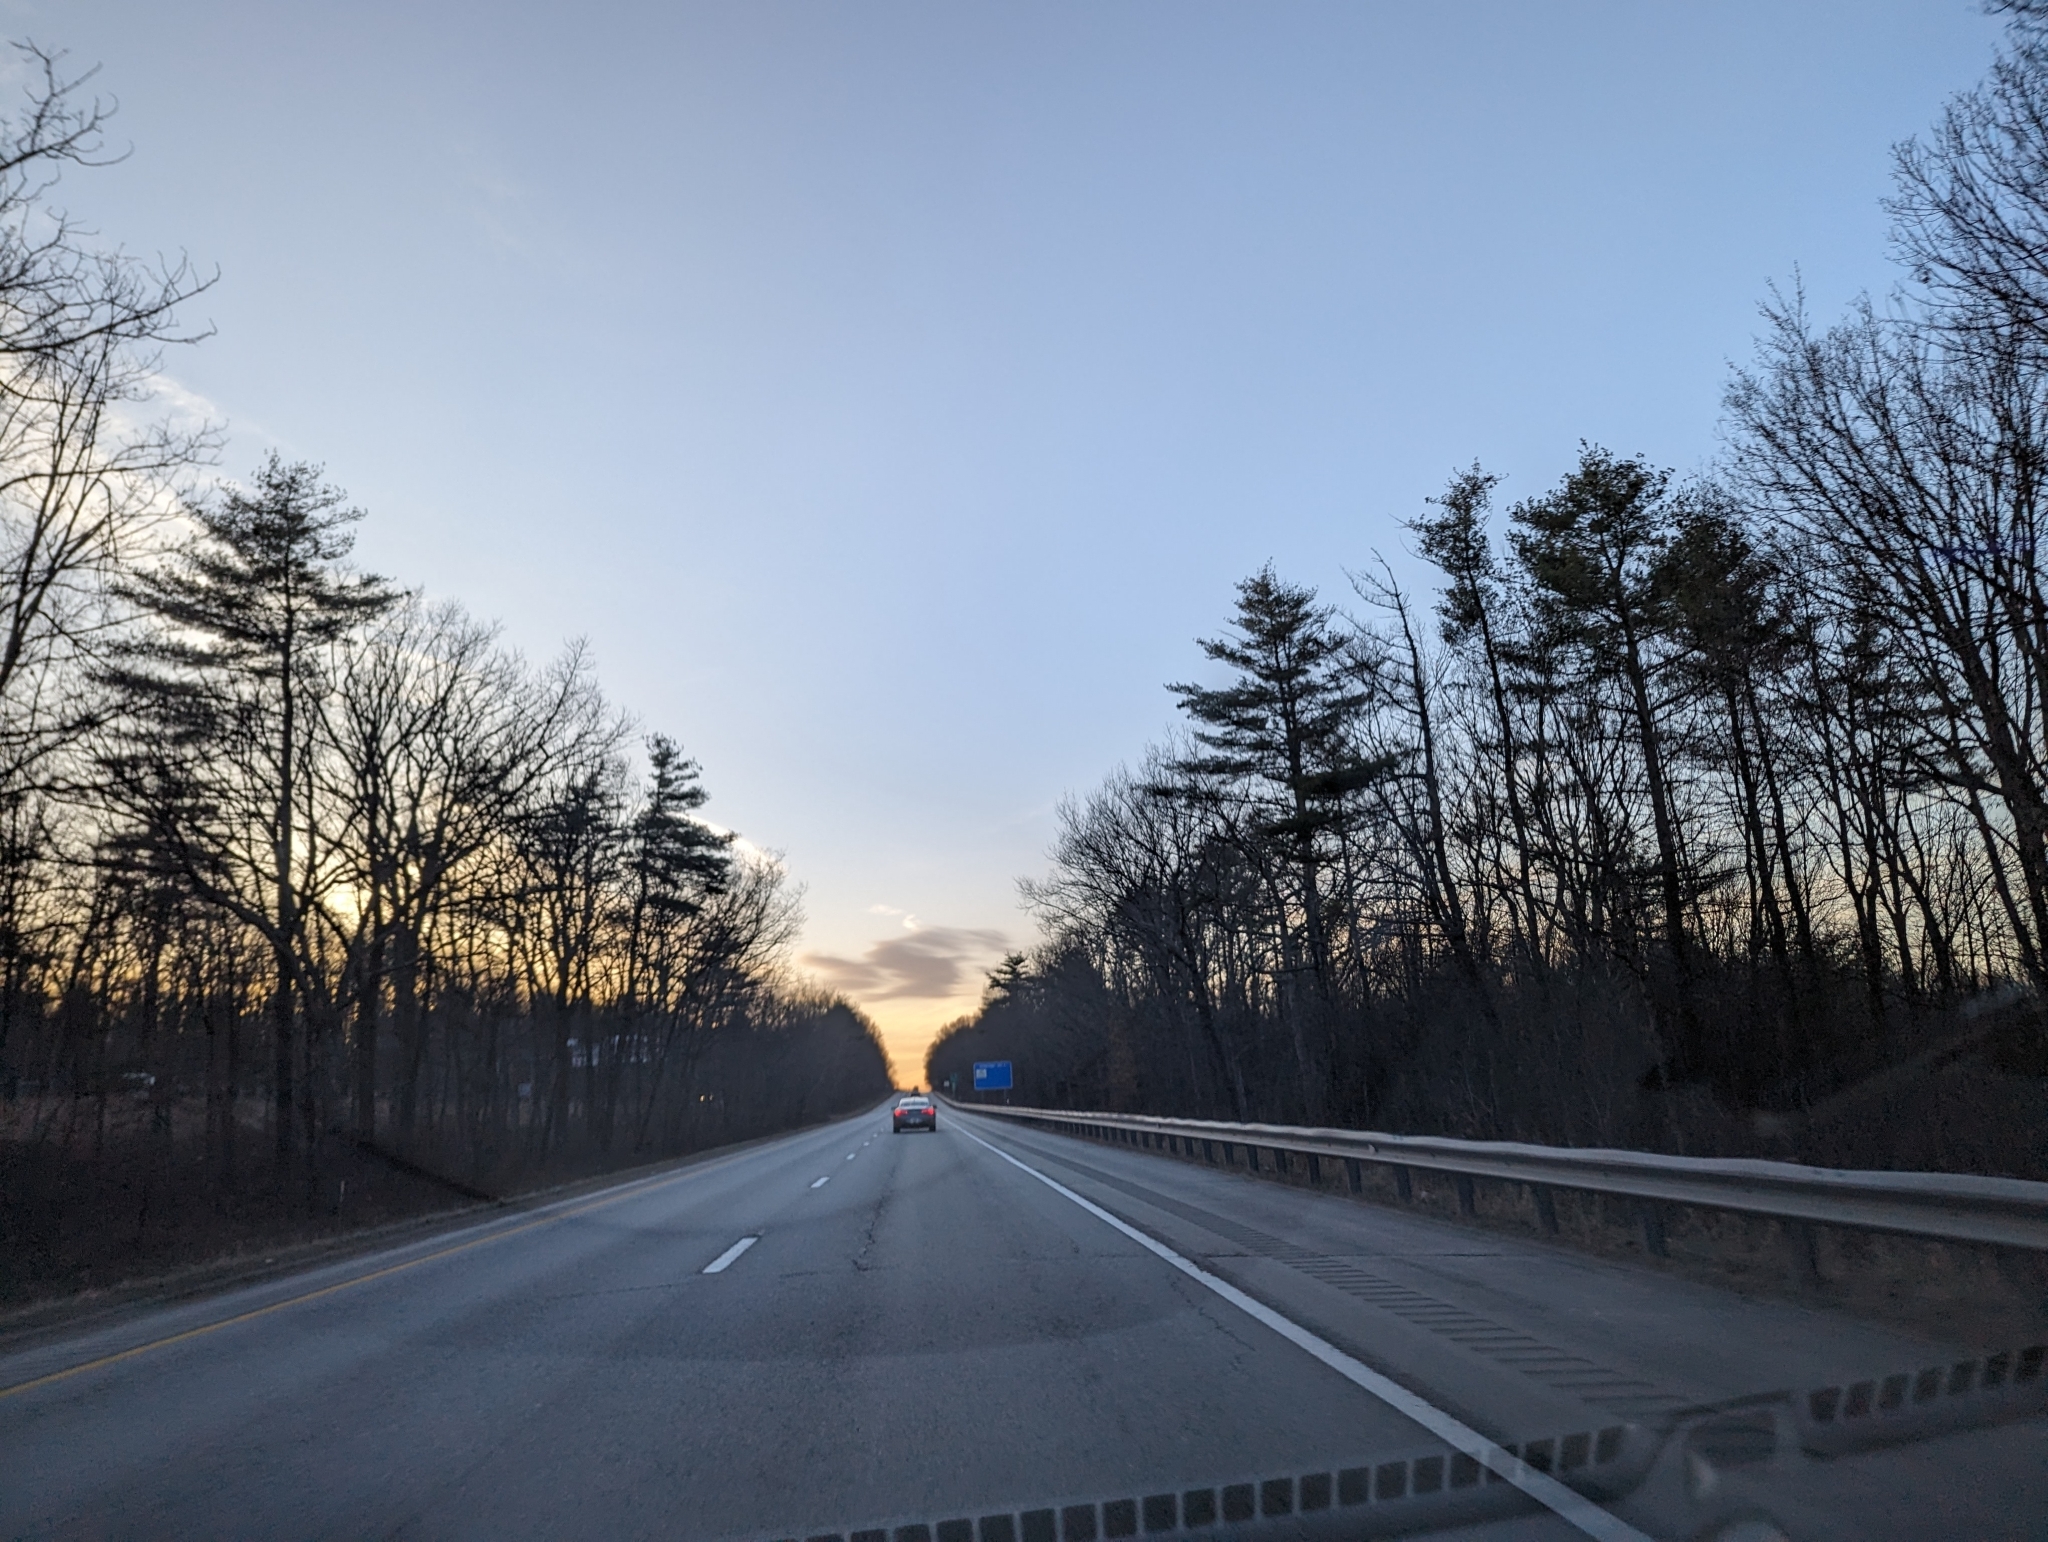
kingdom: Plantae
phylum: Tracheophyta
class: Pinopsida
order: Pinales
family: Pinaceae
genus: Pinus
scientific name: Pinus strobus
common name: Weymouth pine
